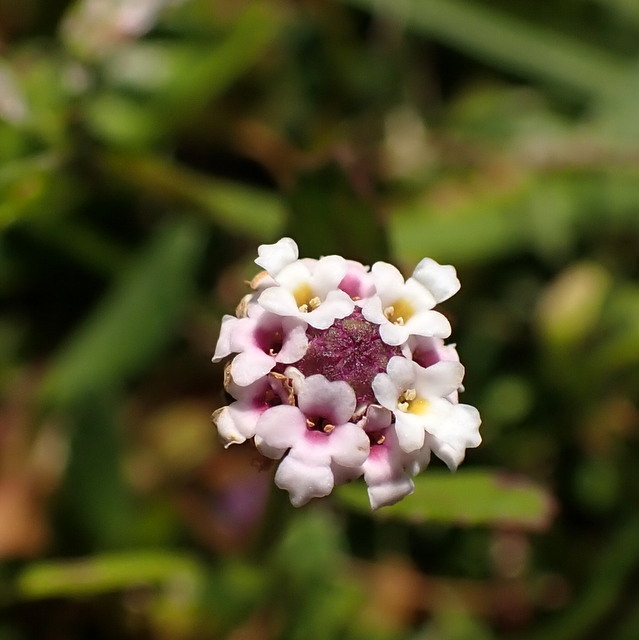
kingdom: Plantae
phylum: Tracheophyta
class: Magnoliopsida
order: Lamiales
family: Verbenaceae
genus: Phyla
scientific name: Phyla nodiflora
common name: Frogfruit
